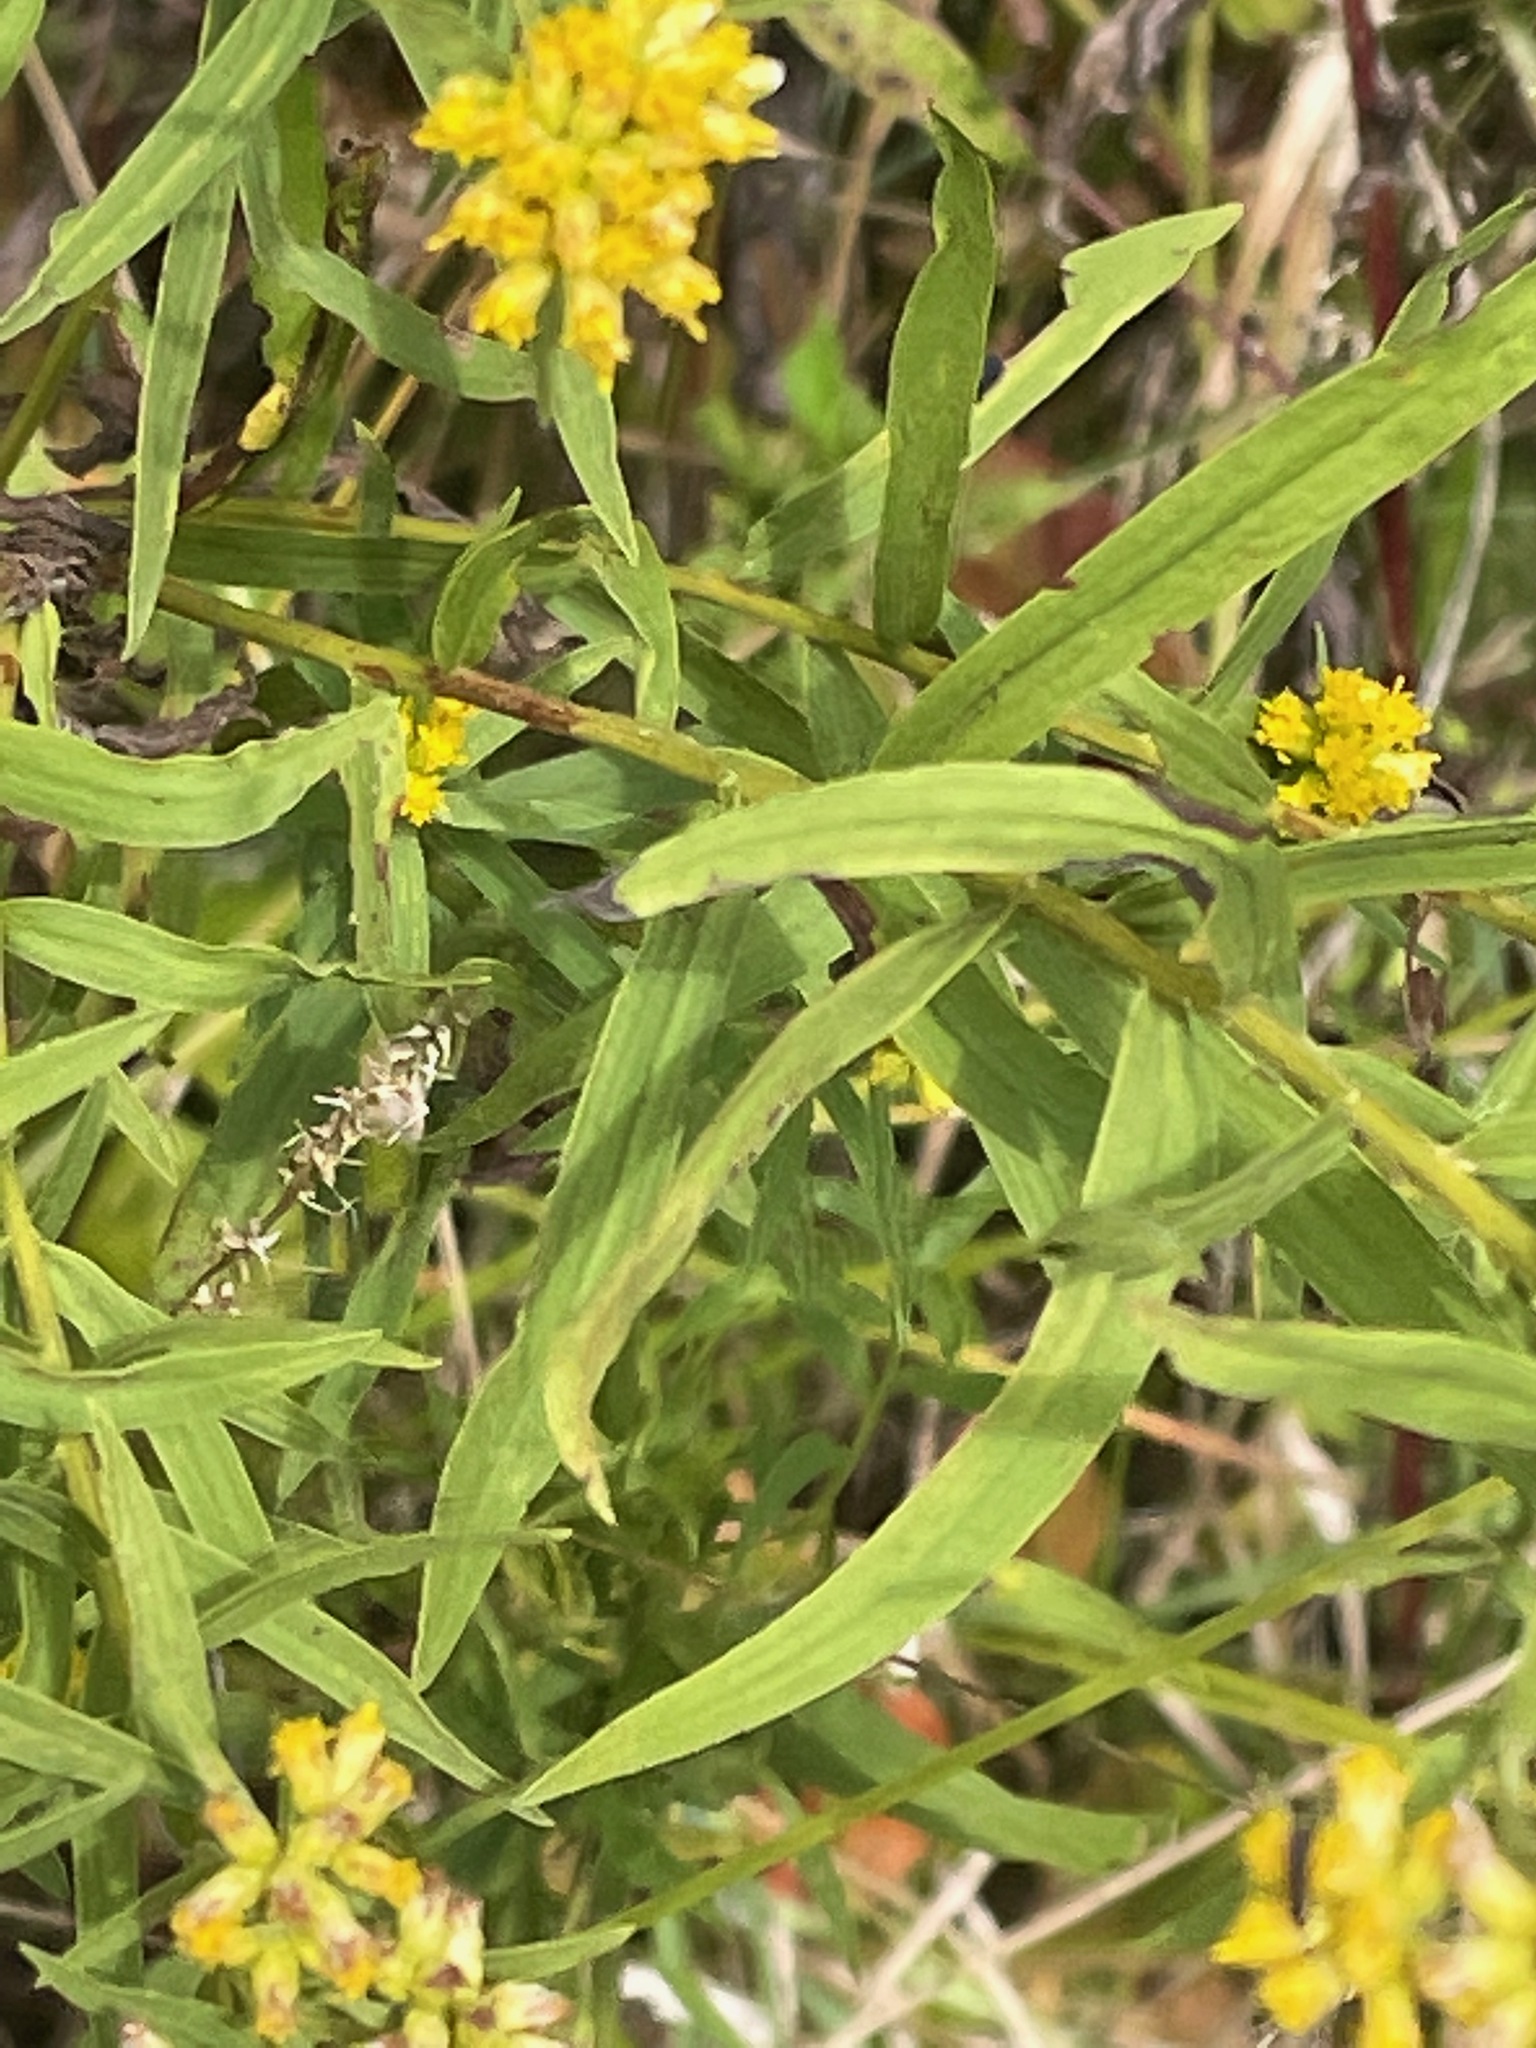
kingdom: Plantae
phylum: Tracheophyta
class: Magnoliopsida
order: Asterales
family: Asteraceae
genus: Euthamia
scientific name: Euthamia graminifolia
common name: Common goldentop
